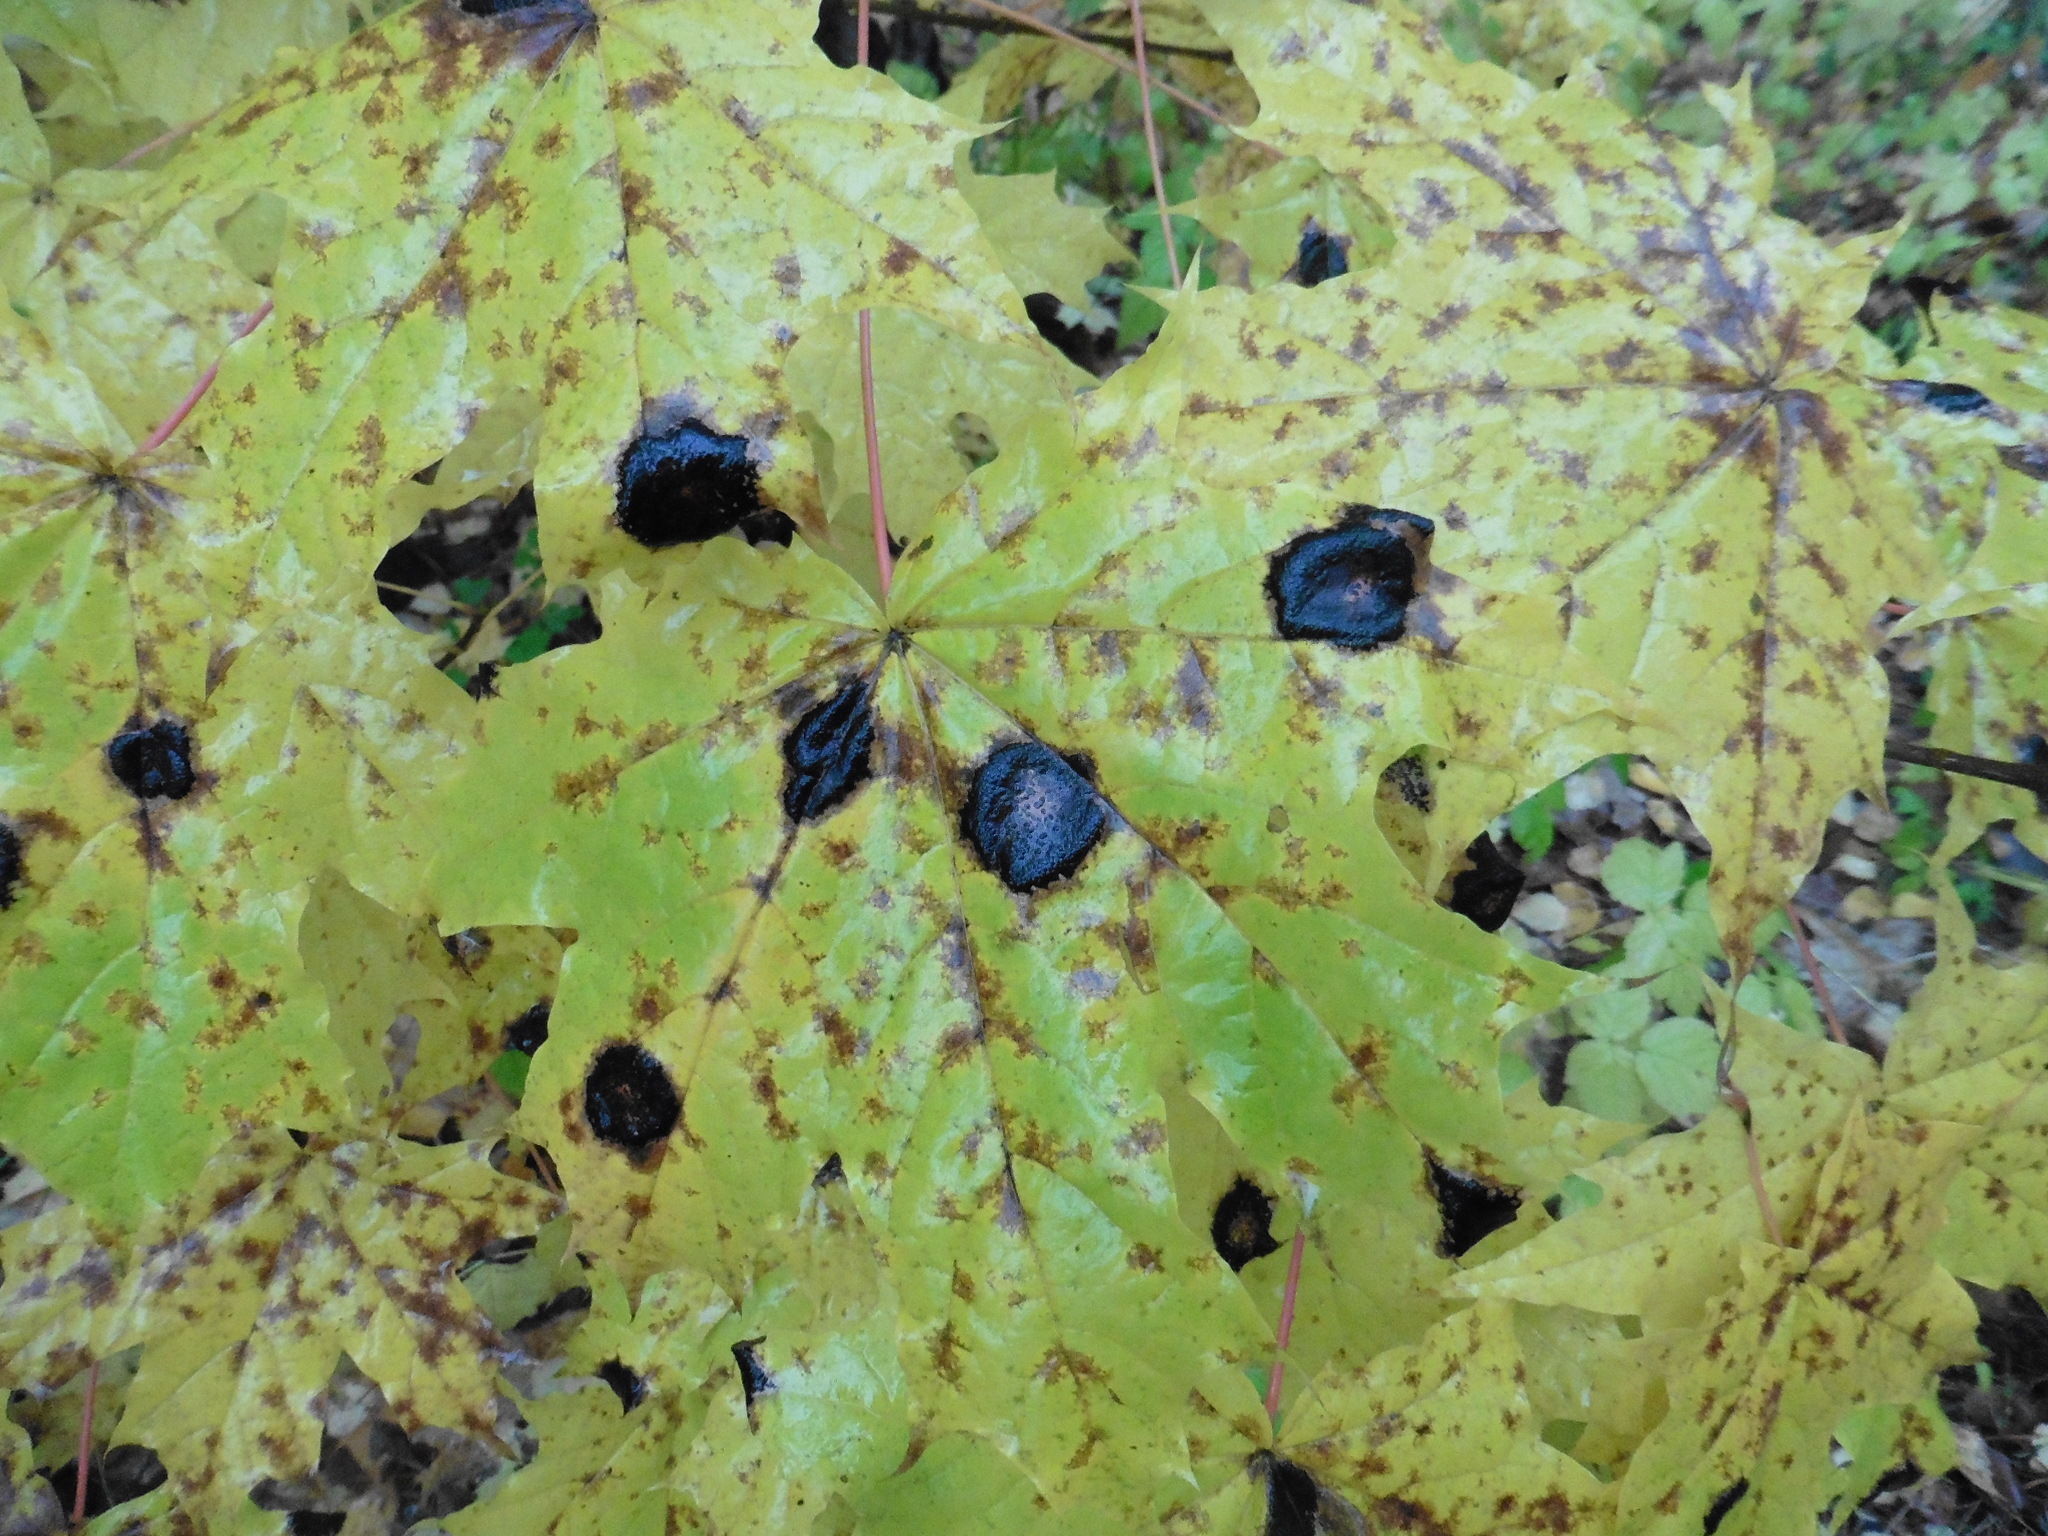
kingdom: Fungi
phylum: Ascomycota
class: Leotiomycetes
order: Rhytismatales
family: Rhytismataceae
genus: Rhytisma
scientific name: Rhytisma acerinum
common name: European tar spot
